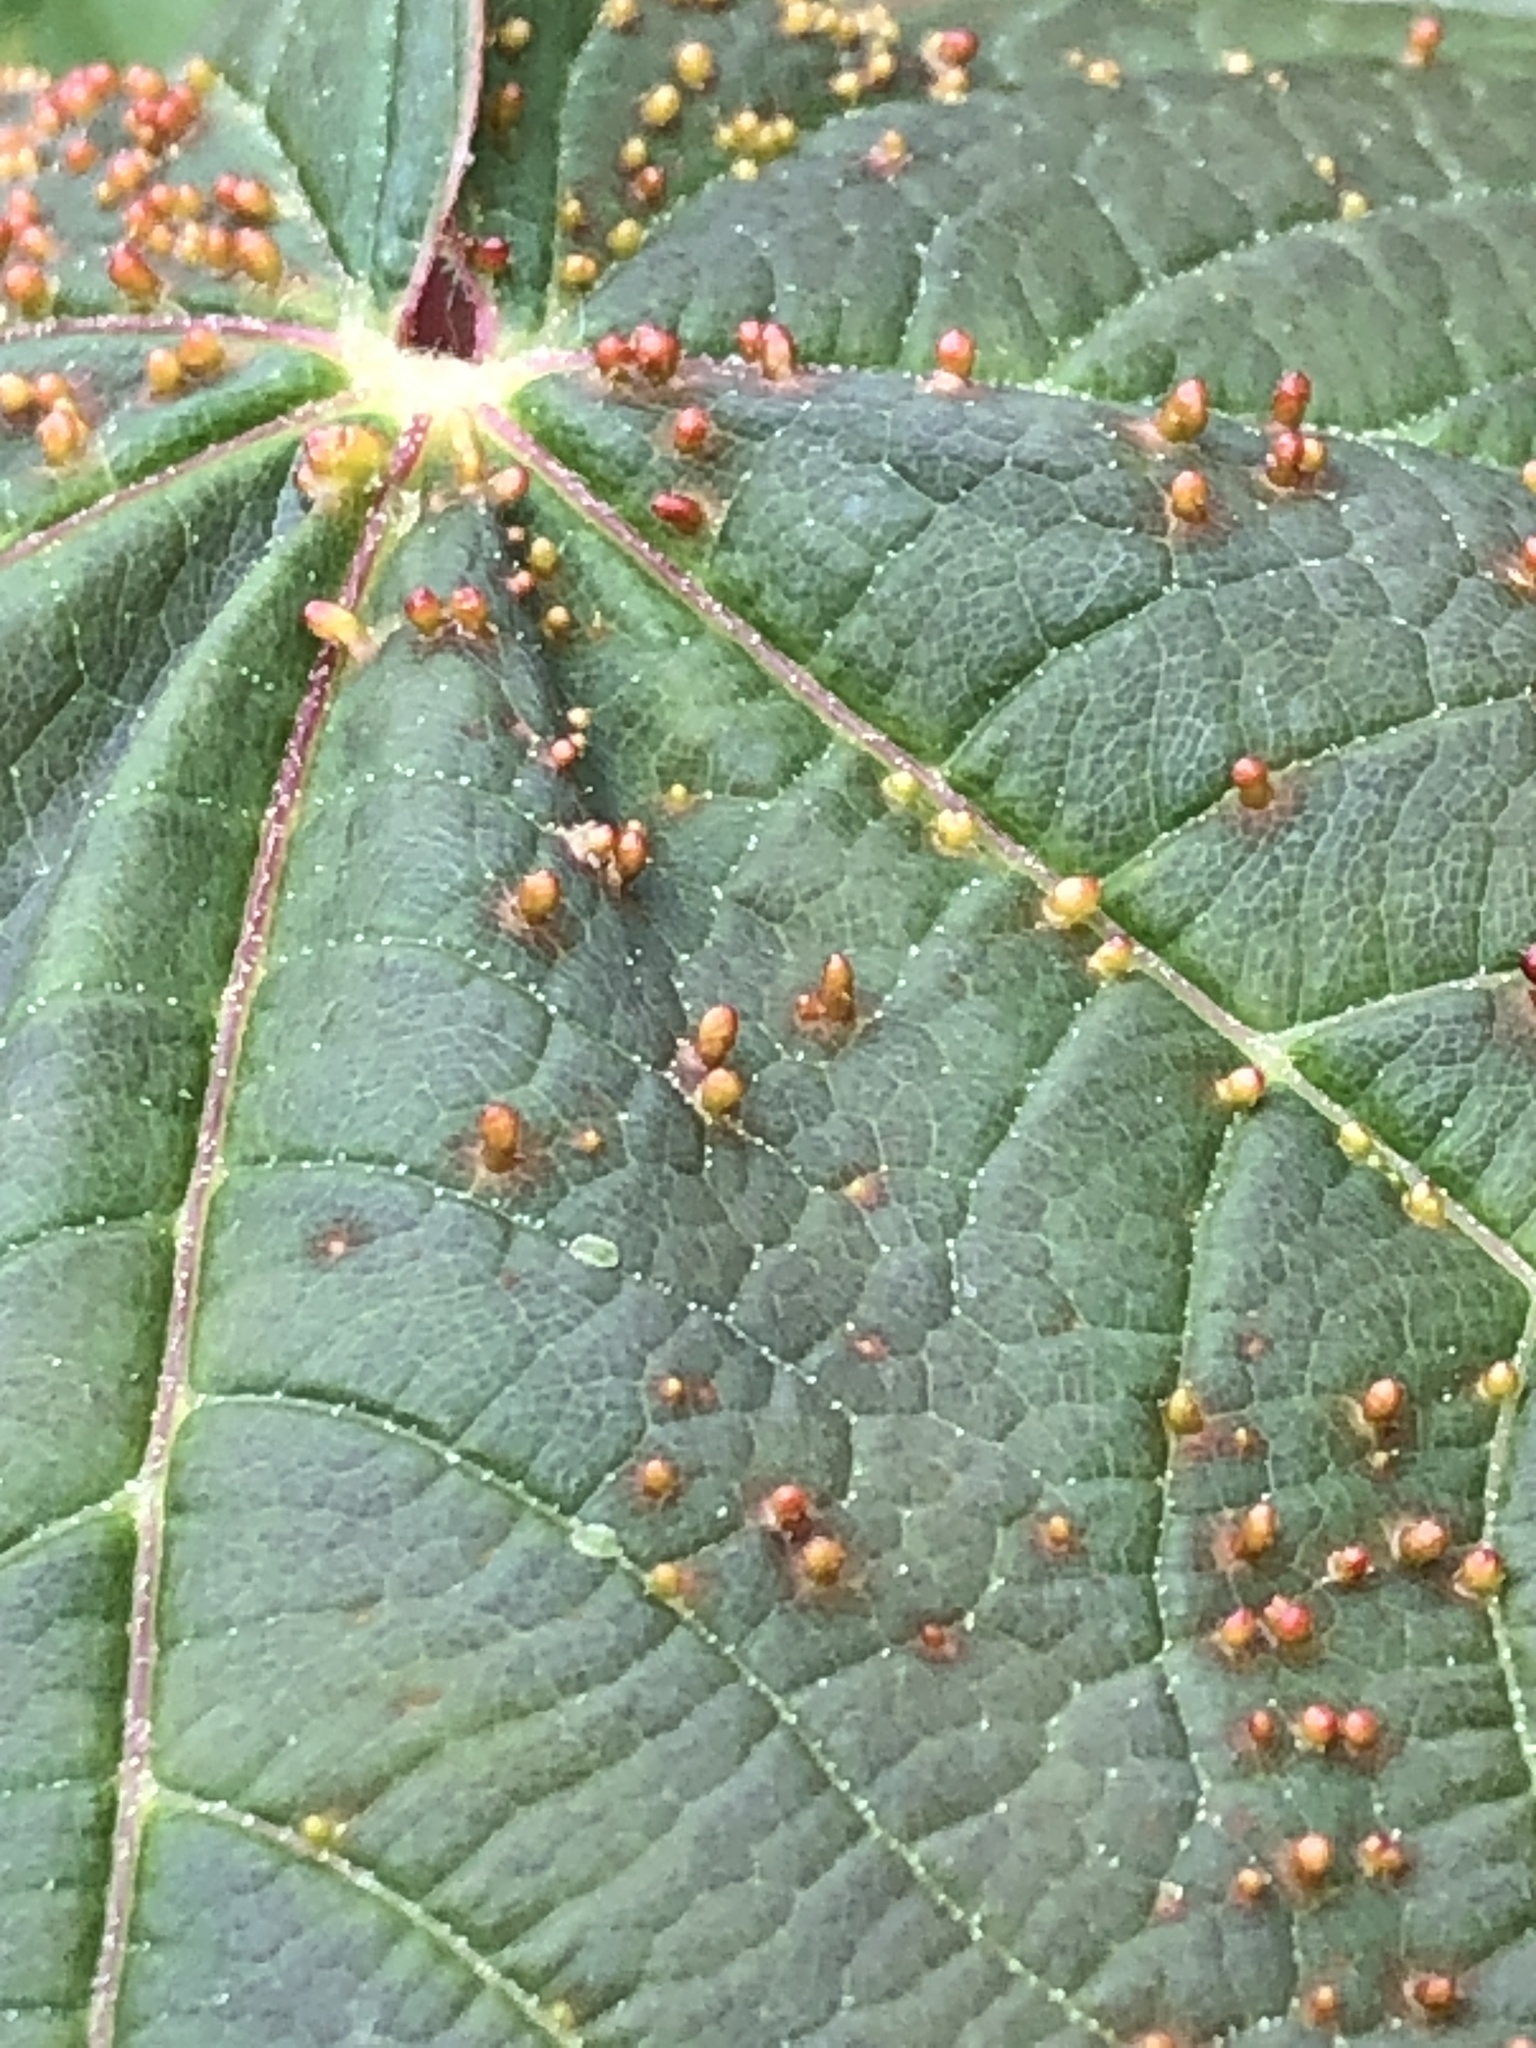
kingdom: Animalia
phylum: Arthropoda
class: Arachnida
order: Trombidiformes
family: Eriophyidae
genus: Aceria
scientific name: Aceria cephaloneus
